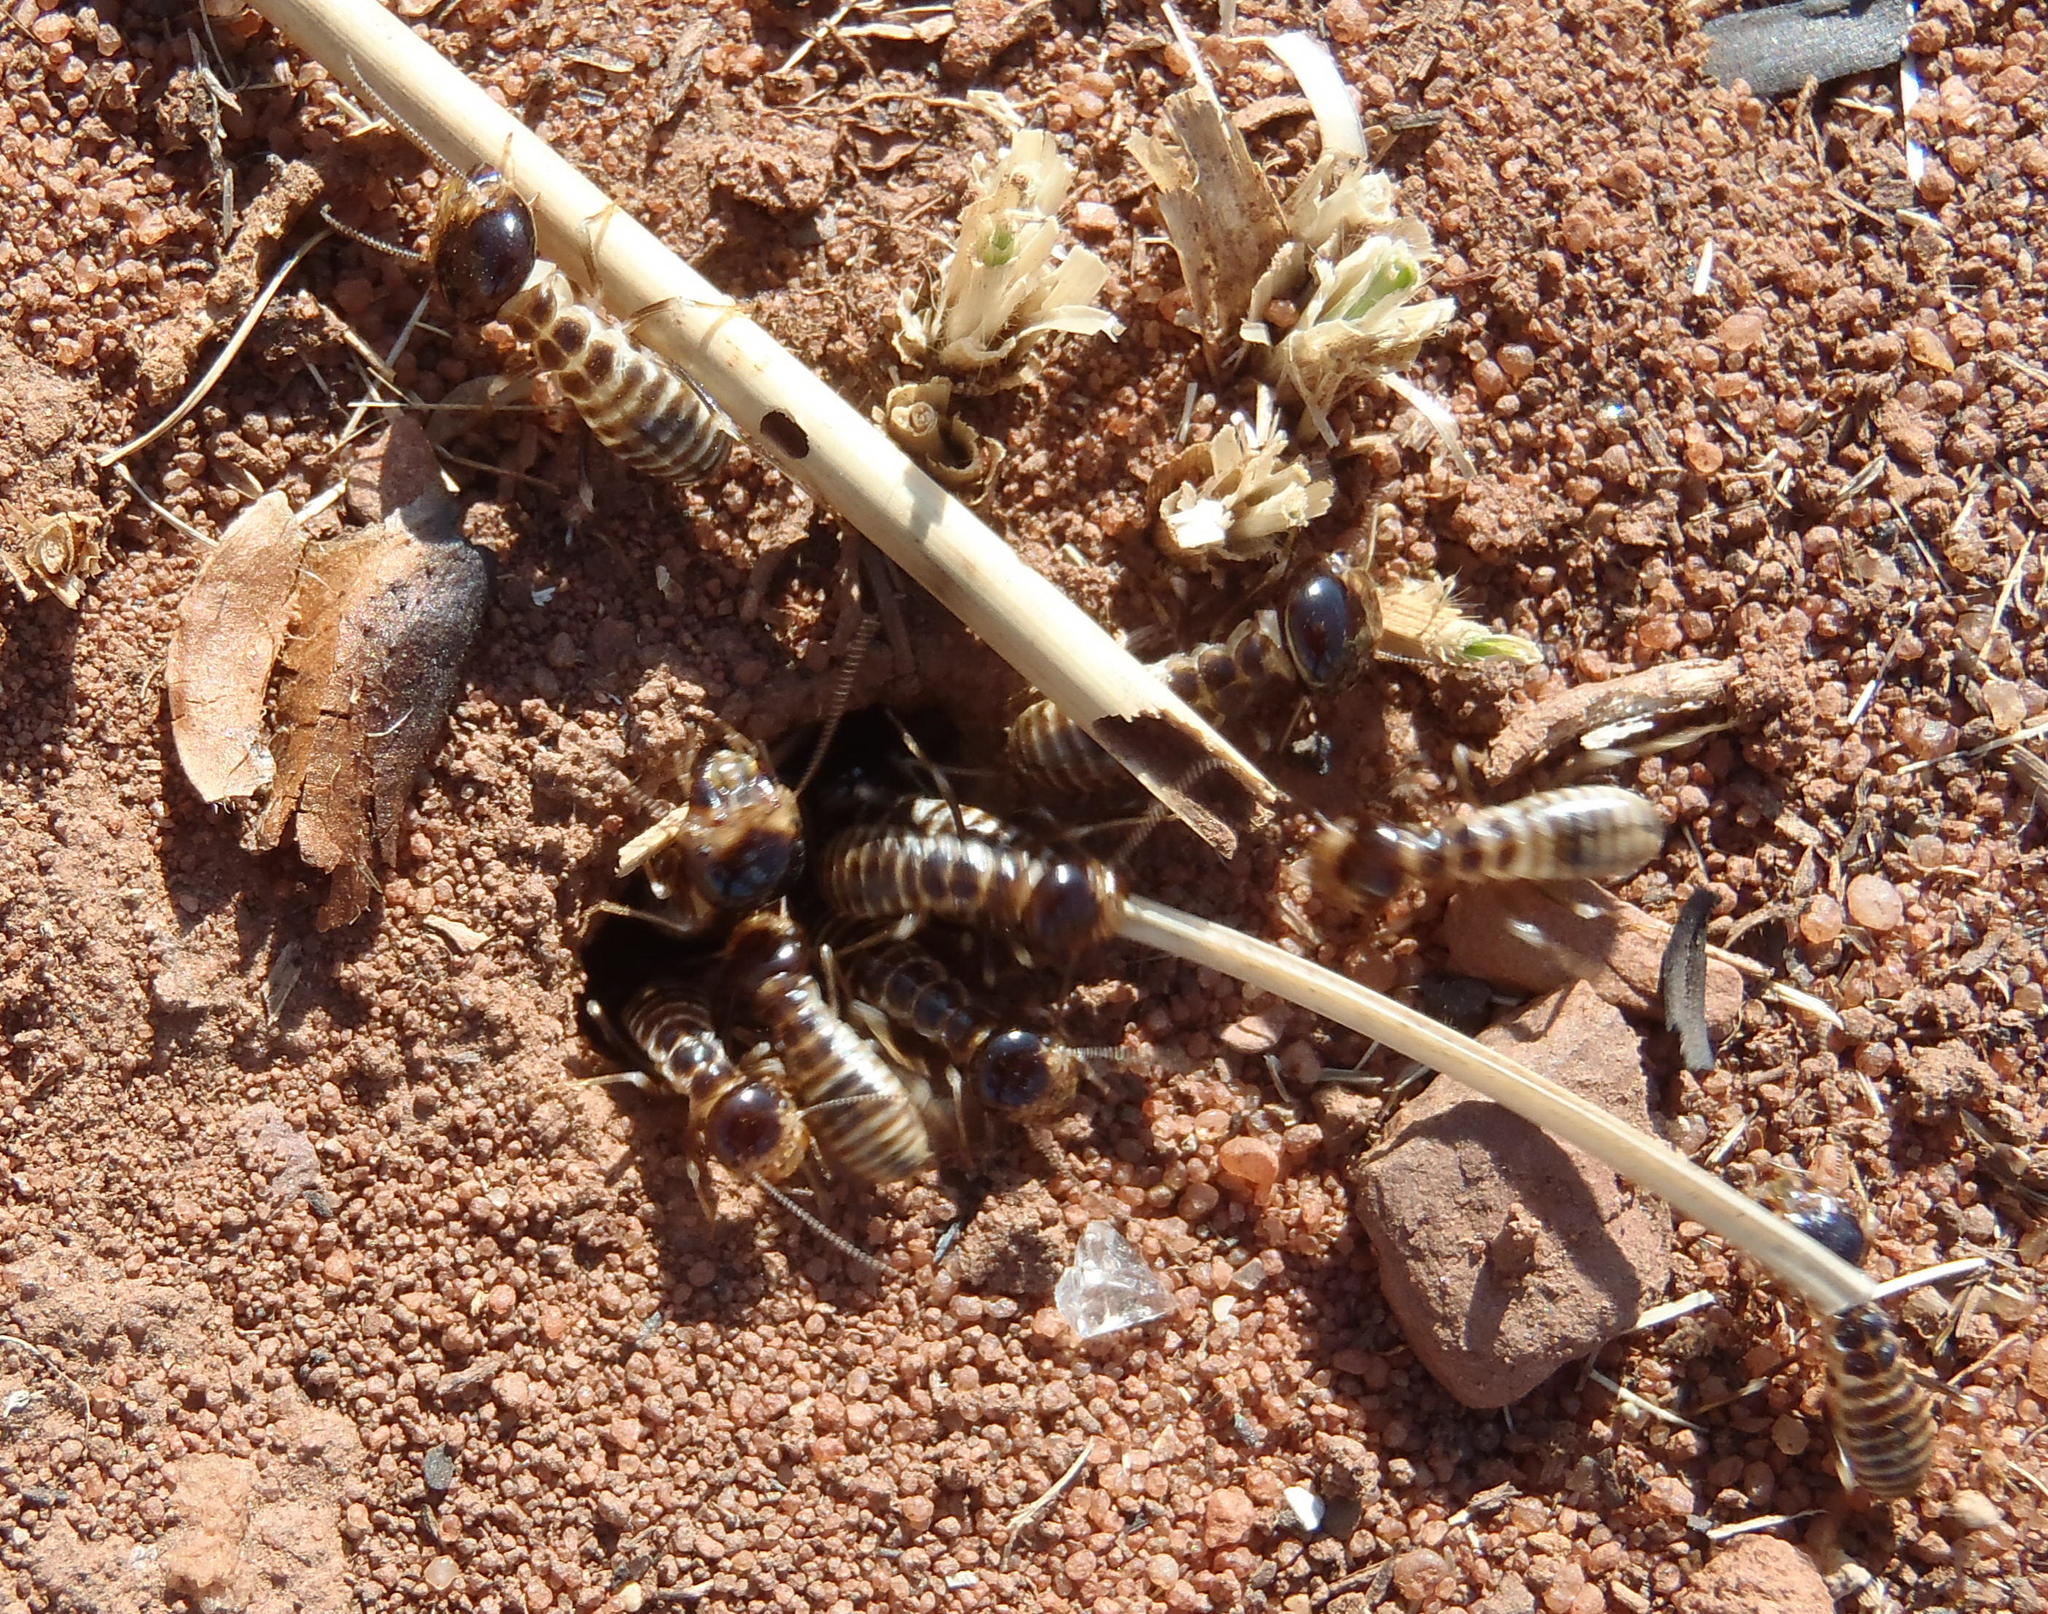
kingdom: Animalia
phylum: Arthropoda
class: Insecta
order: Blattodea
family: Hodotermitidae
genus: Hodotermes
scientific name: Hodotermes mossambicus
